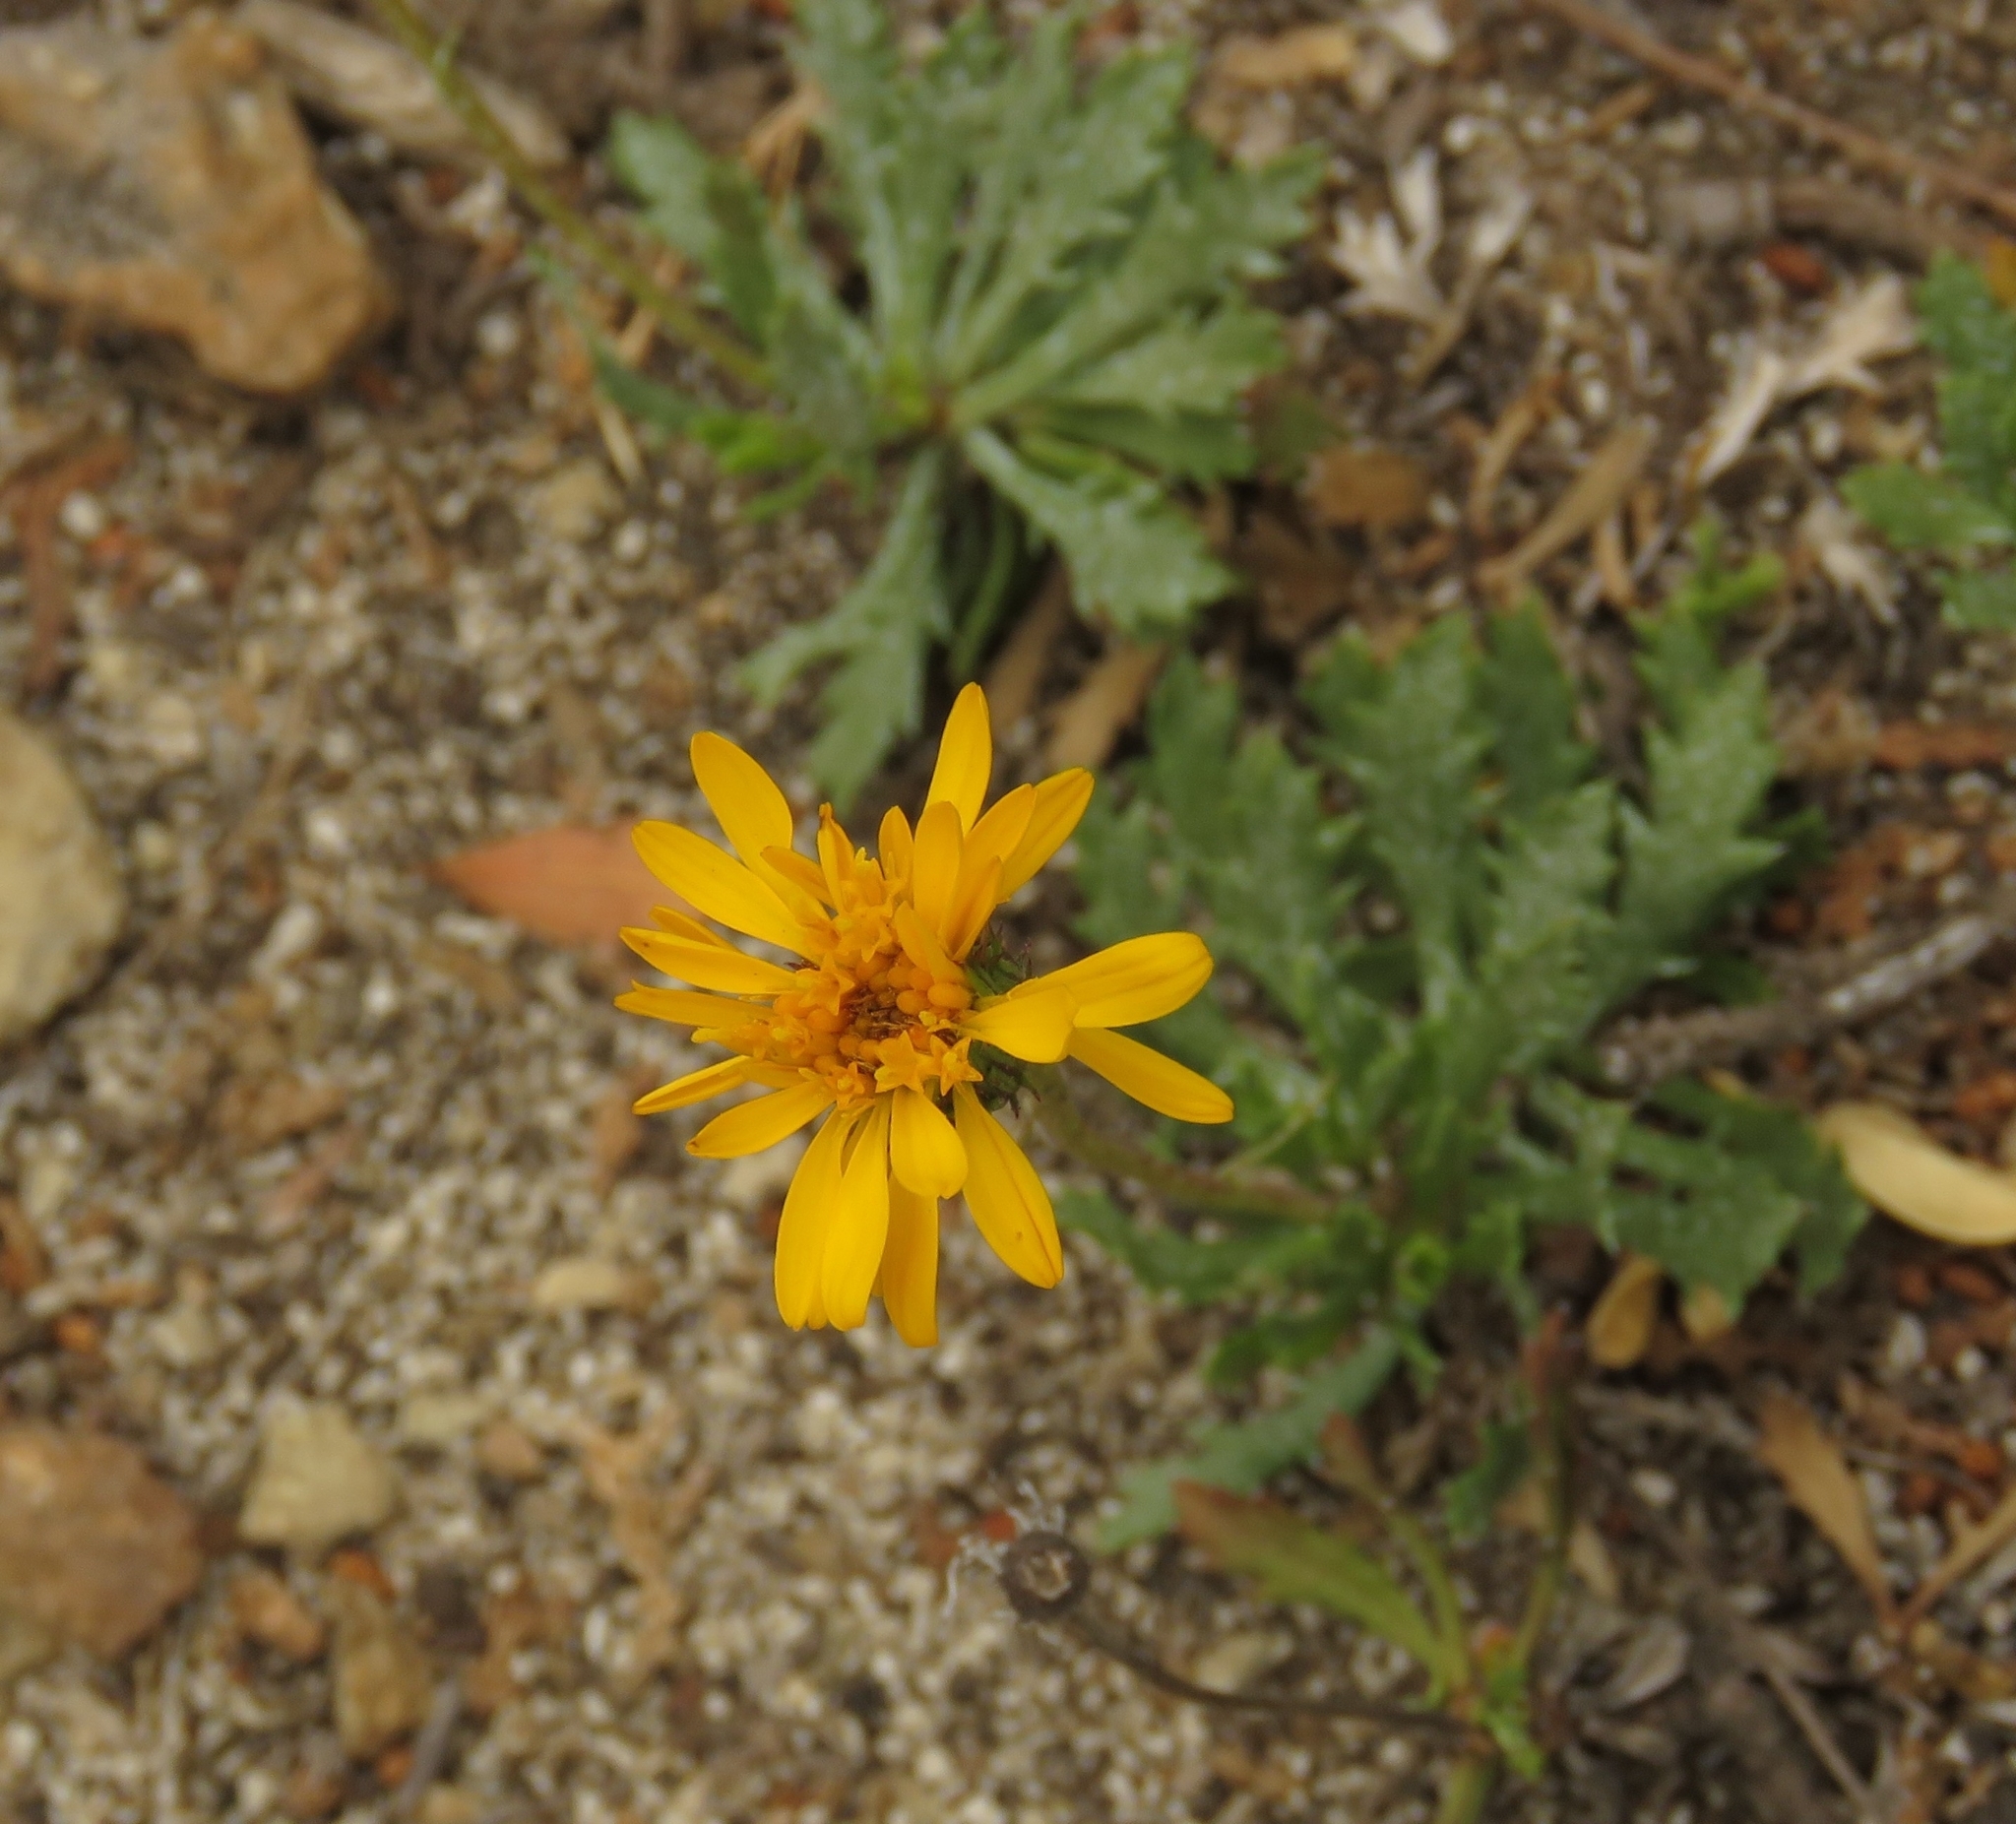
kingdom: Plantae
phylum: Tracheophyta
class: Magnoliopsida
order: Asterales
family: Asteraceae
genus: Grindelia
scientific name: Grindelia chiloensis
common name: Shrubby gumweed
